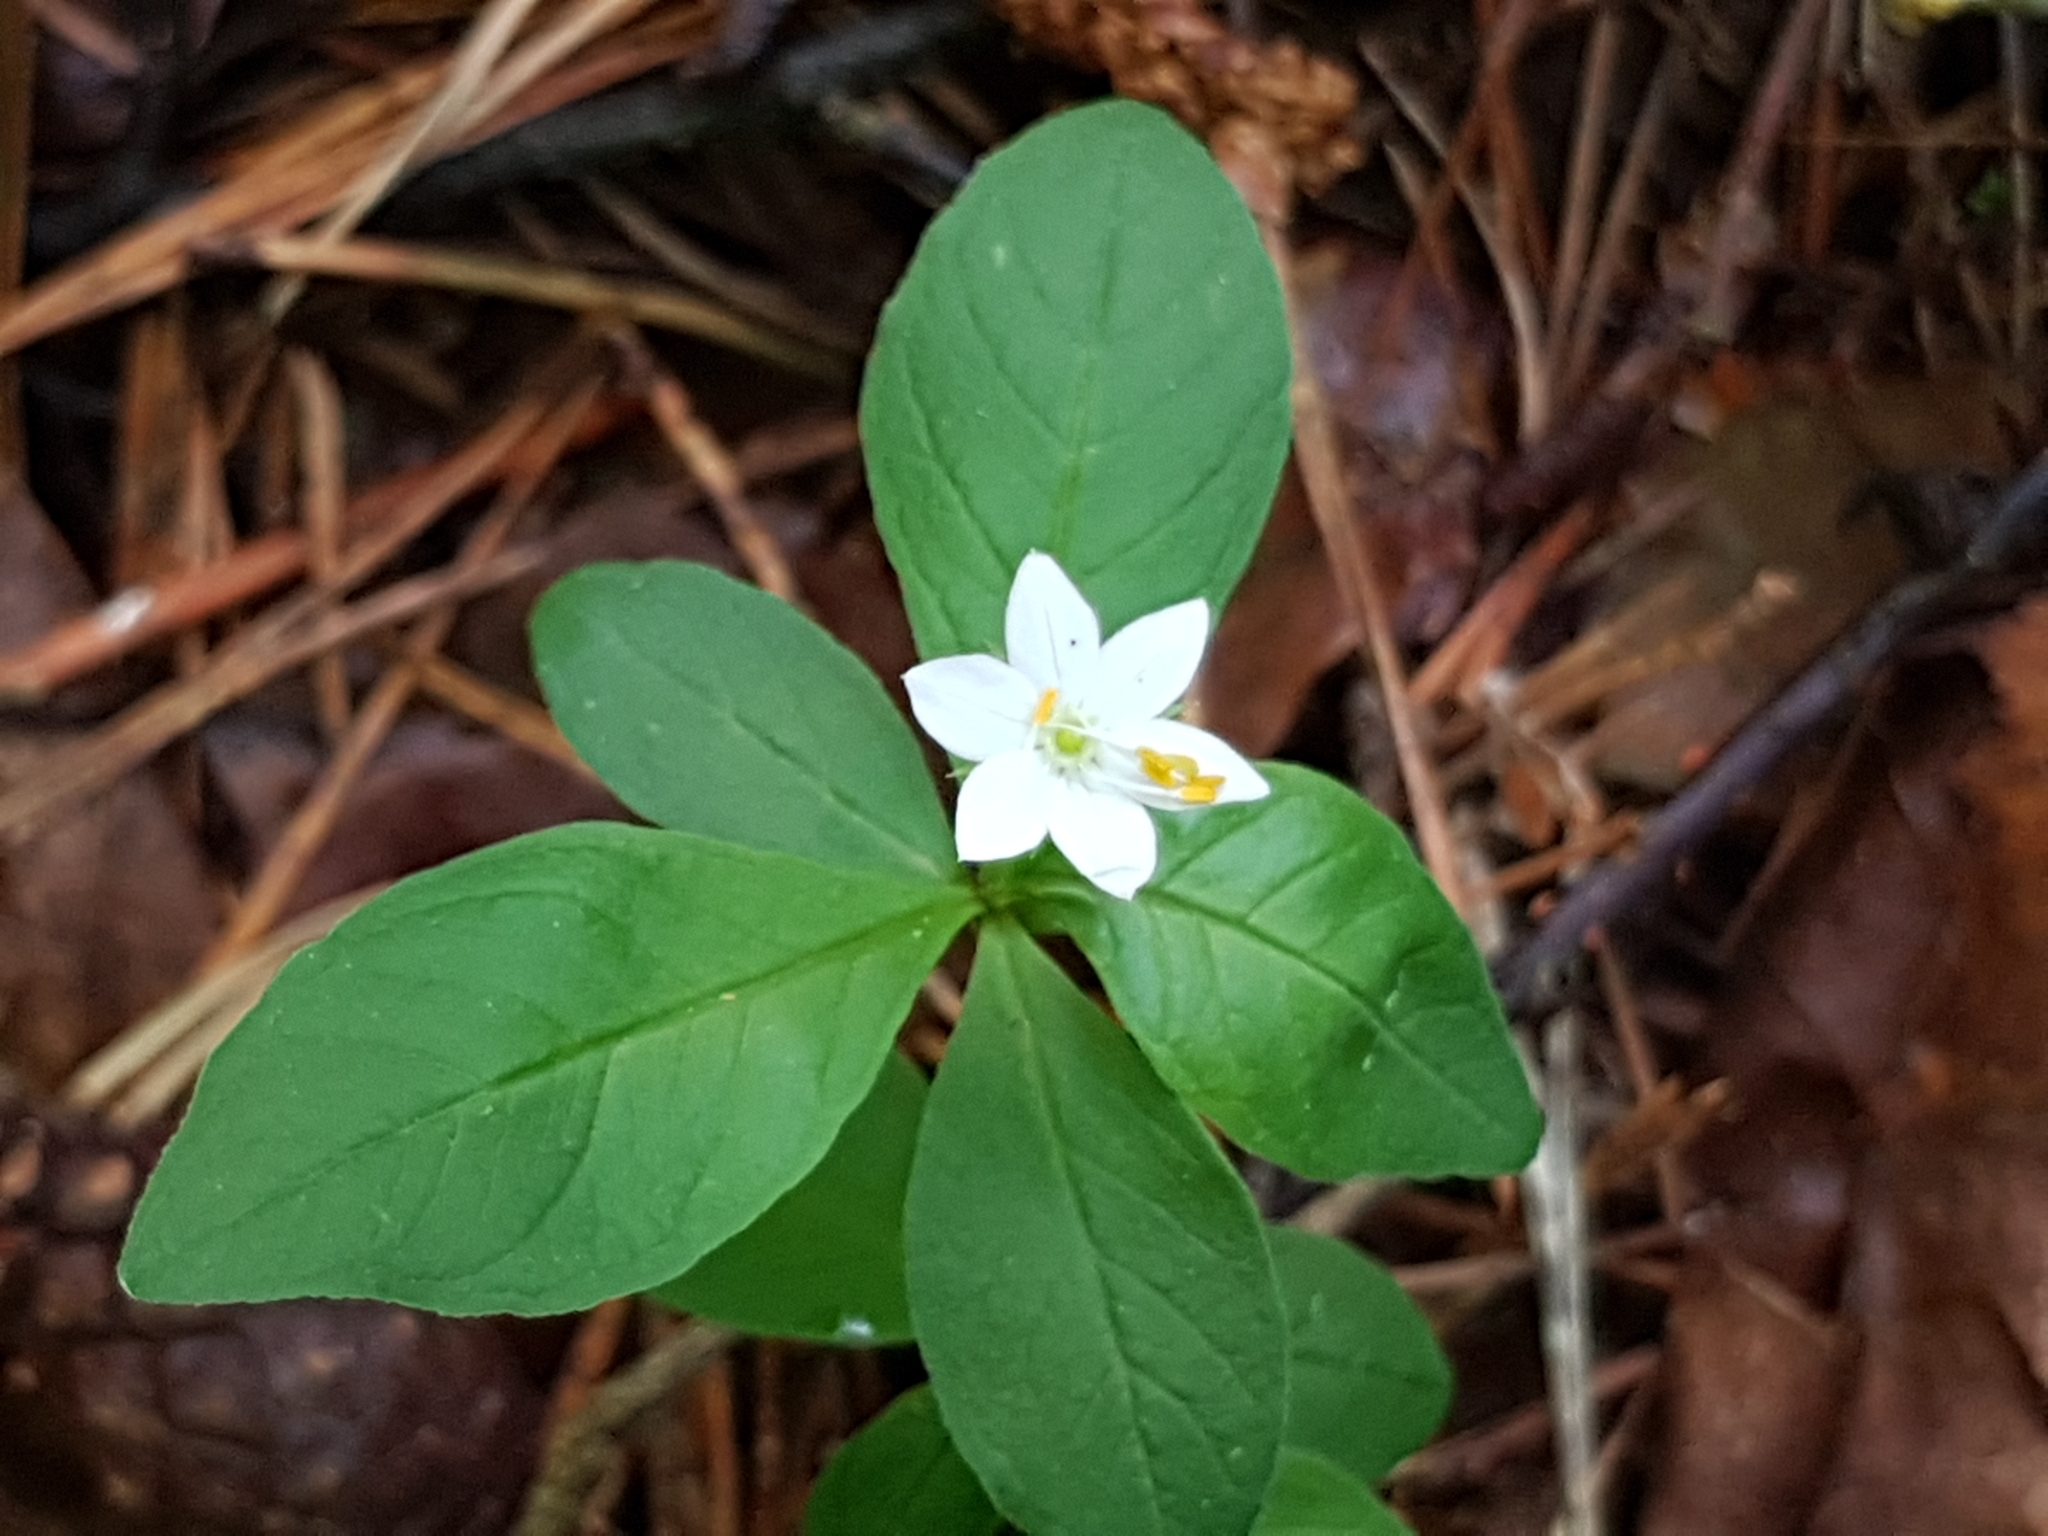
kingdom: Plantae
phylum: Tracheophyta
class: Magnoliopsida
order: Ericales
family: Primulaceae
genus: Lysimachia
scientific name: Lysimachia europaea
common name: Arctic starflower
